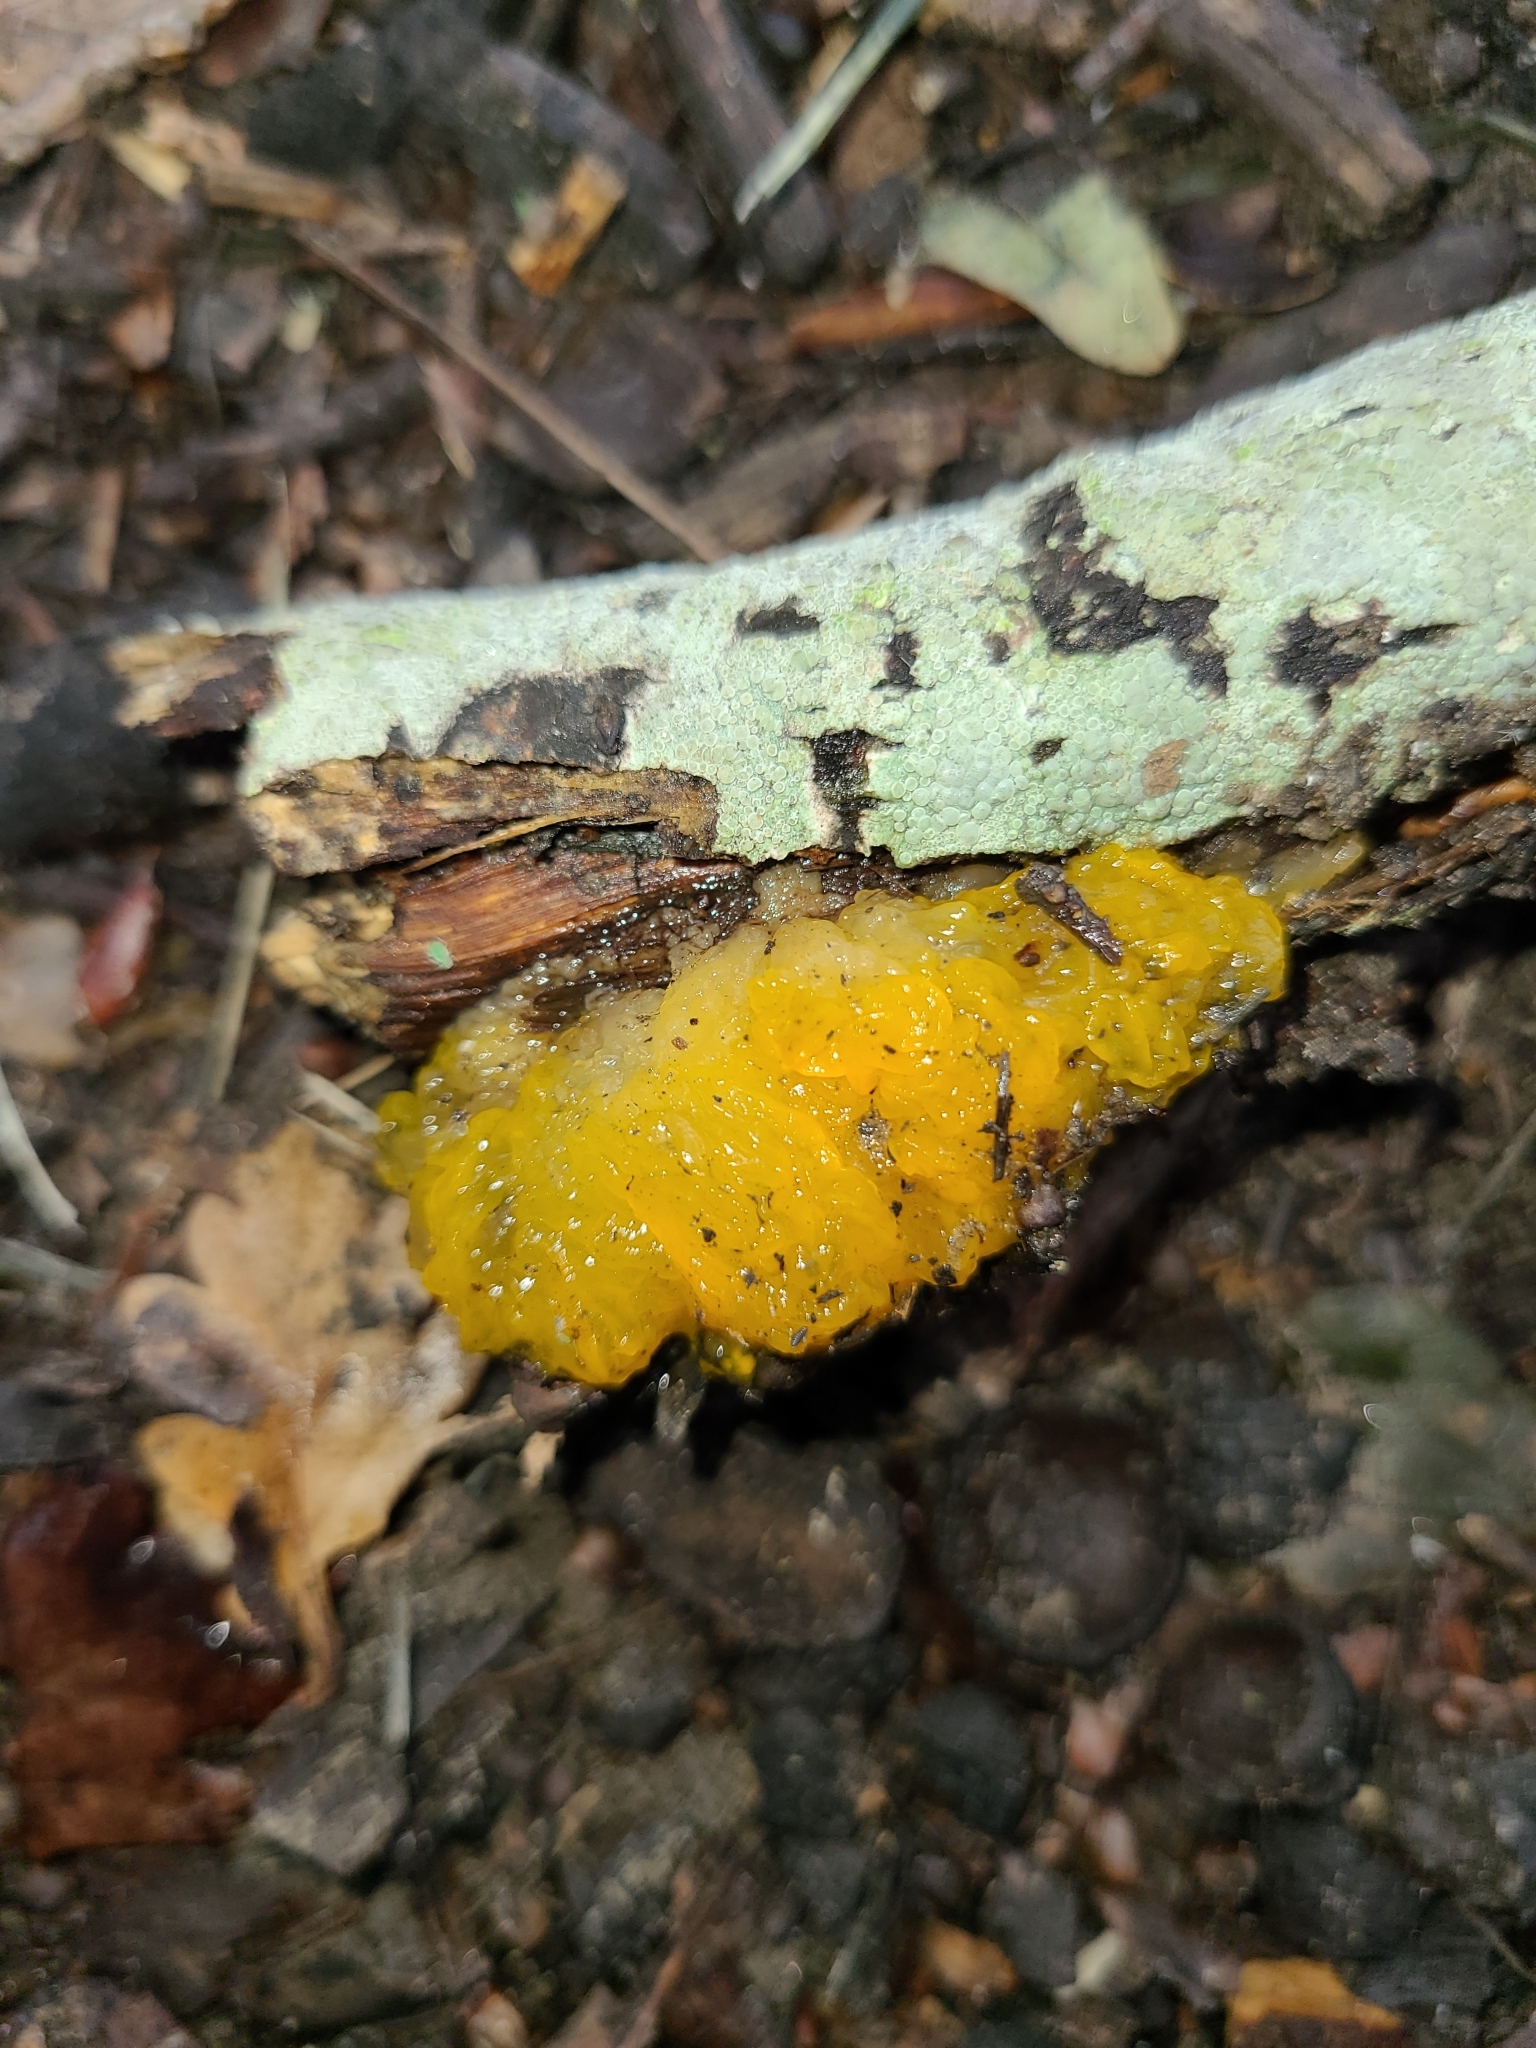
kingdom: Fungi
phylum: Basidiomycota
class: Tremellomycetes
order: Tremellales
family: Tremellaceae
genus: Tremella
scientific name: Tremella mesenterica
